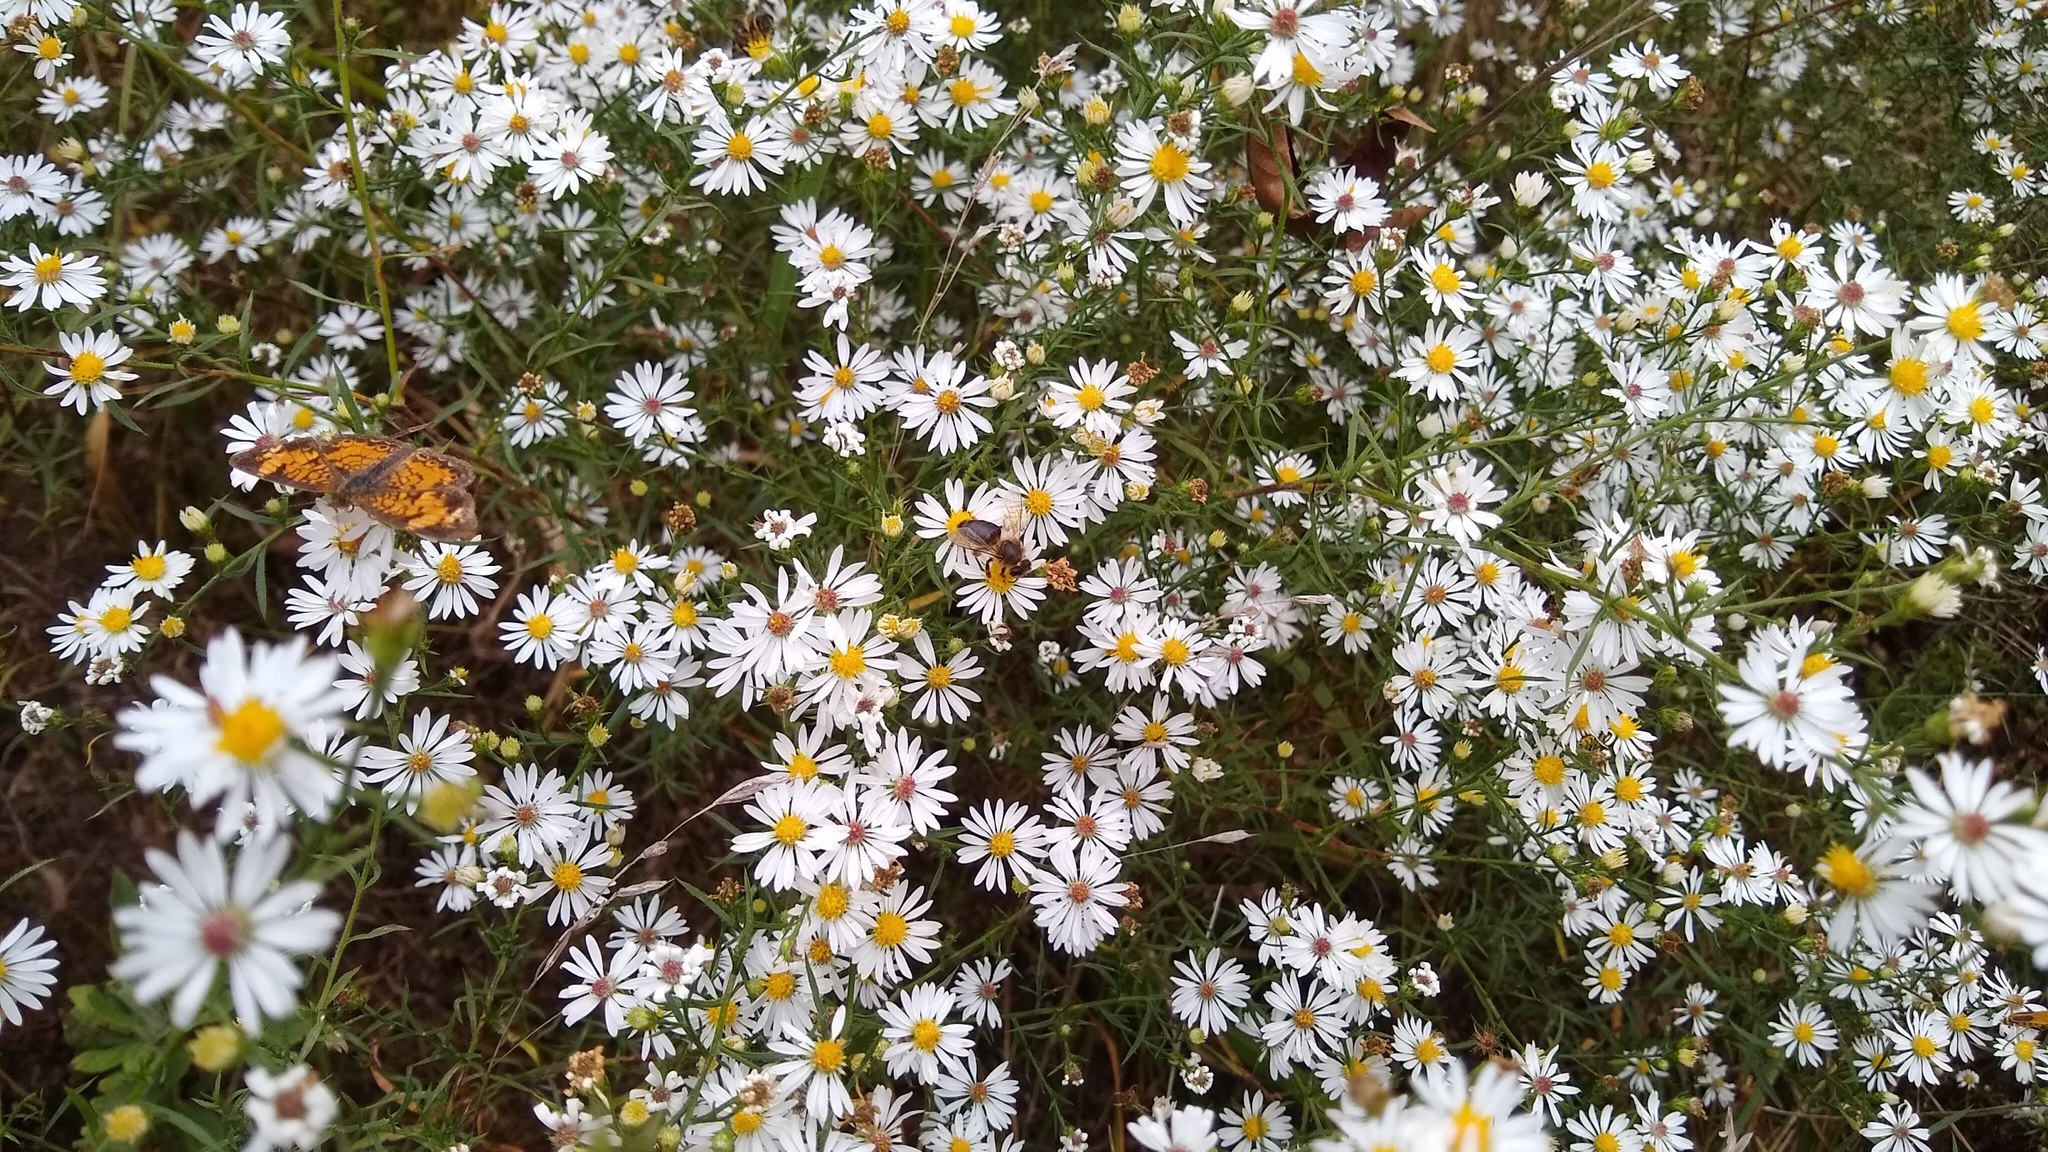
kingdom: Animalia
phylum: Arthropoda
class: Insecta
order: Lepidoptera
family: Nymphalidae
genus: Phyciodes
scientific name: Phyciodes tharos
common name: Pearl crescent
